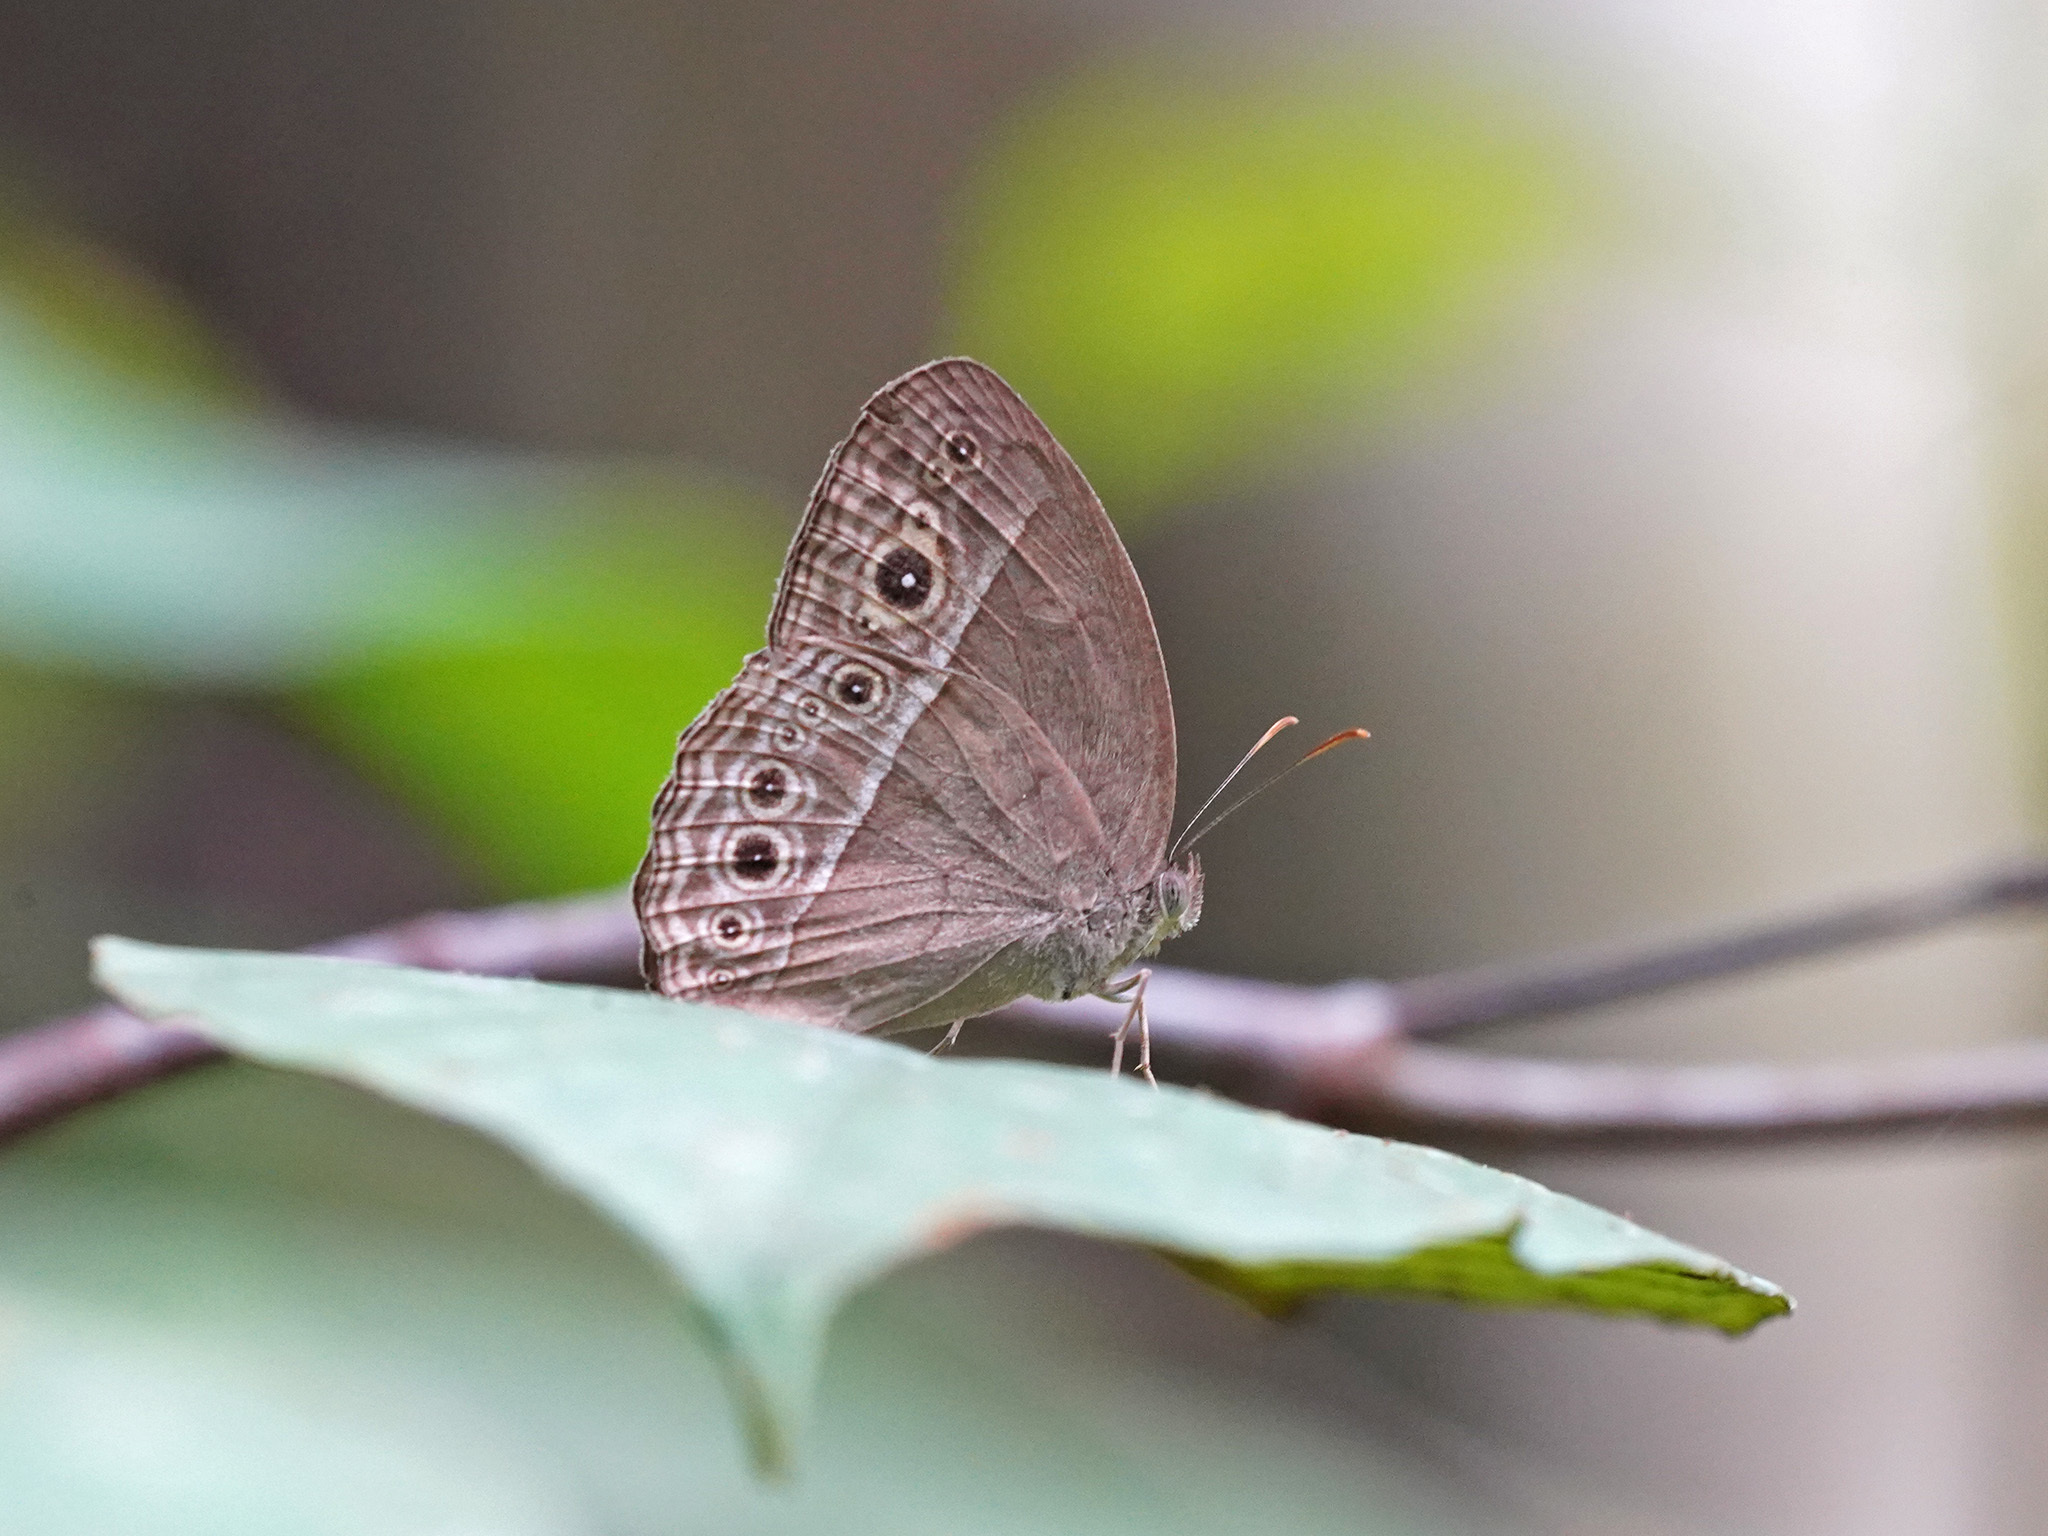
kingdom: Animalia
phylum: Arthropoda
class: Insecta
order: Lepidoptera
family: Nymphalidae
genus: Mycalesis
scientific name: Mycalesis perseoides
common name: Burmese bushbrown
